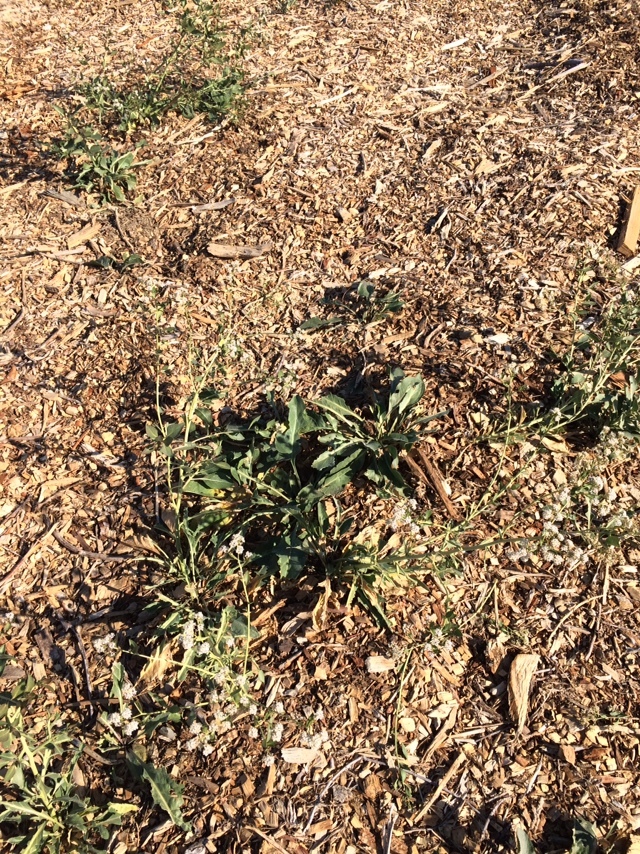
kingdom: Plantae
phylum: Tracheophyta
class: Magnoliopsida
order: Brassicales
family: Brassicaceae
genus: Lepidium
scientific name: Lepidium latifolium
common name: Dittander
